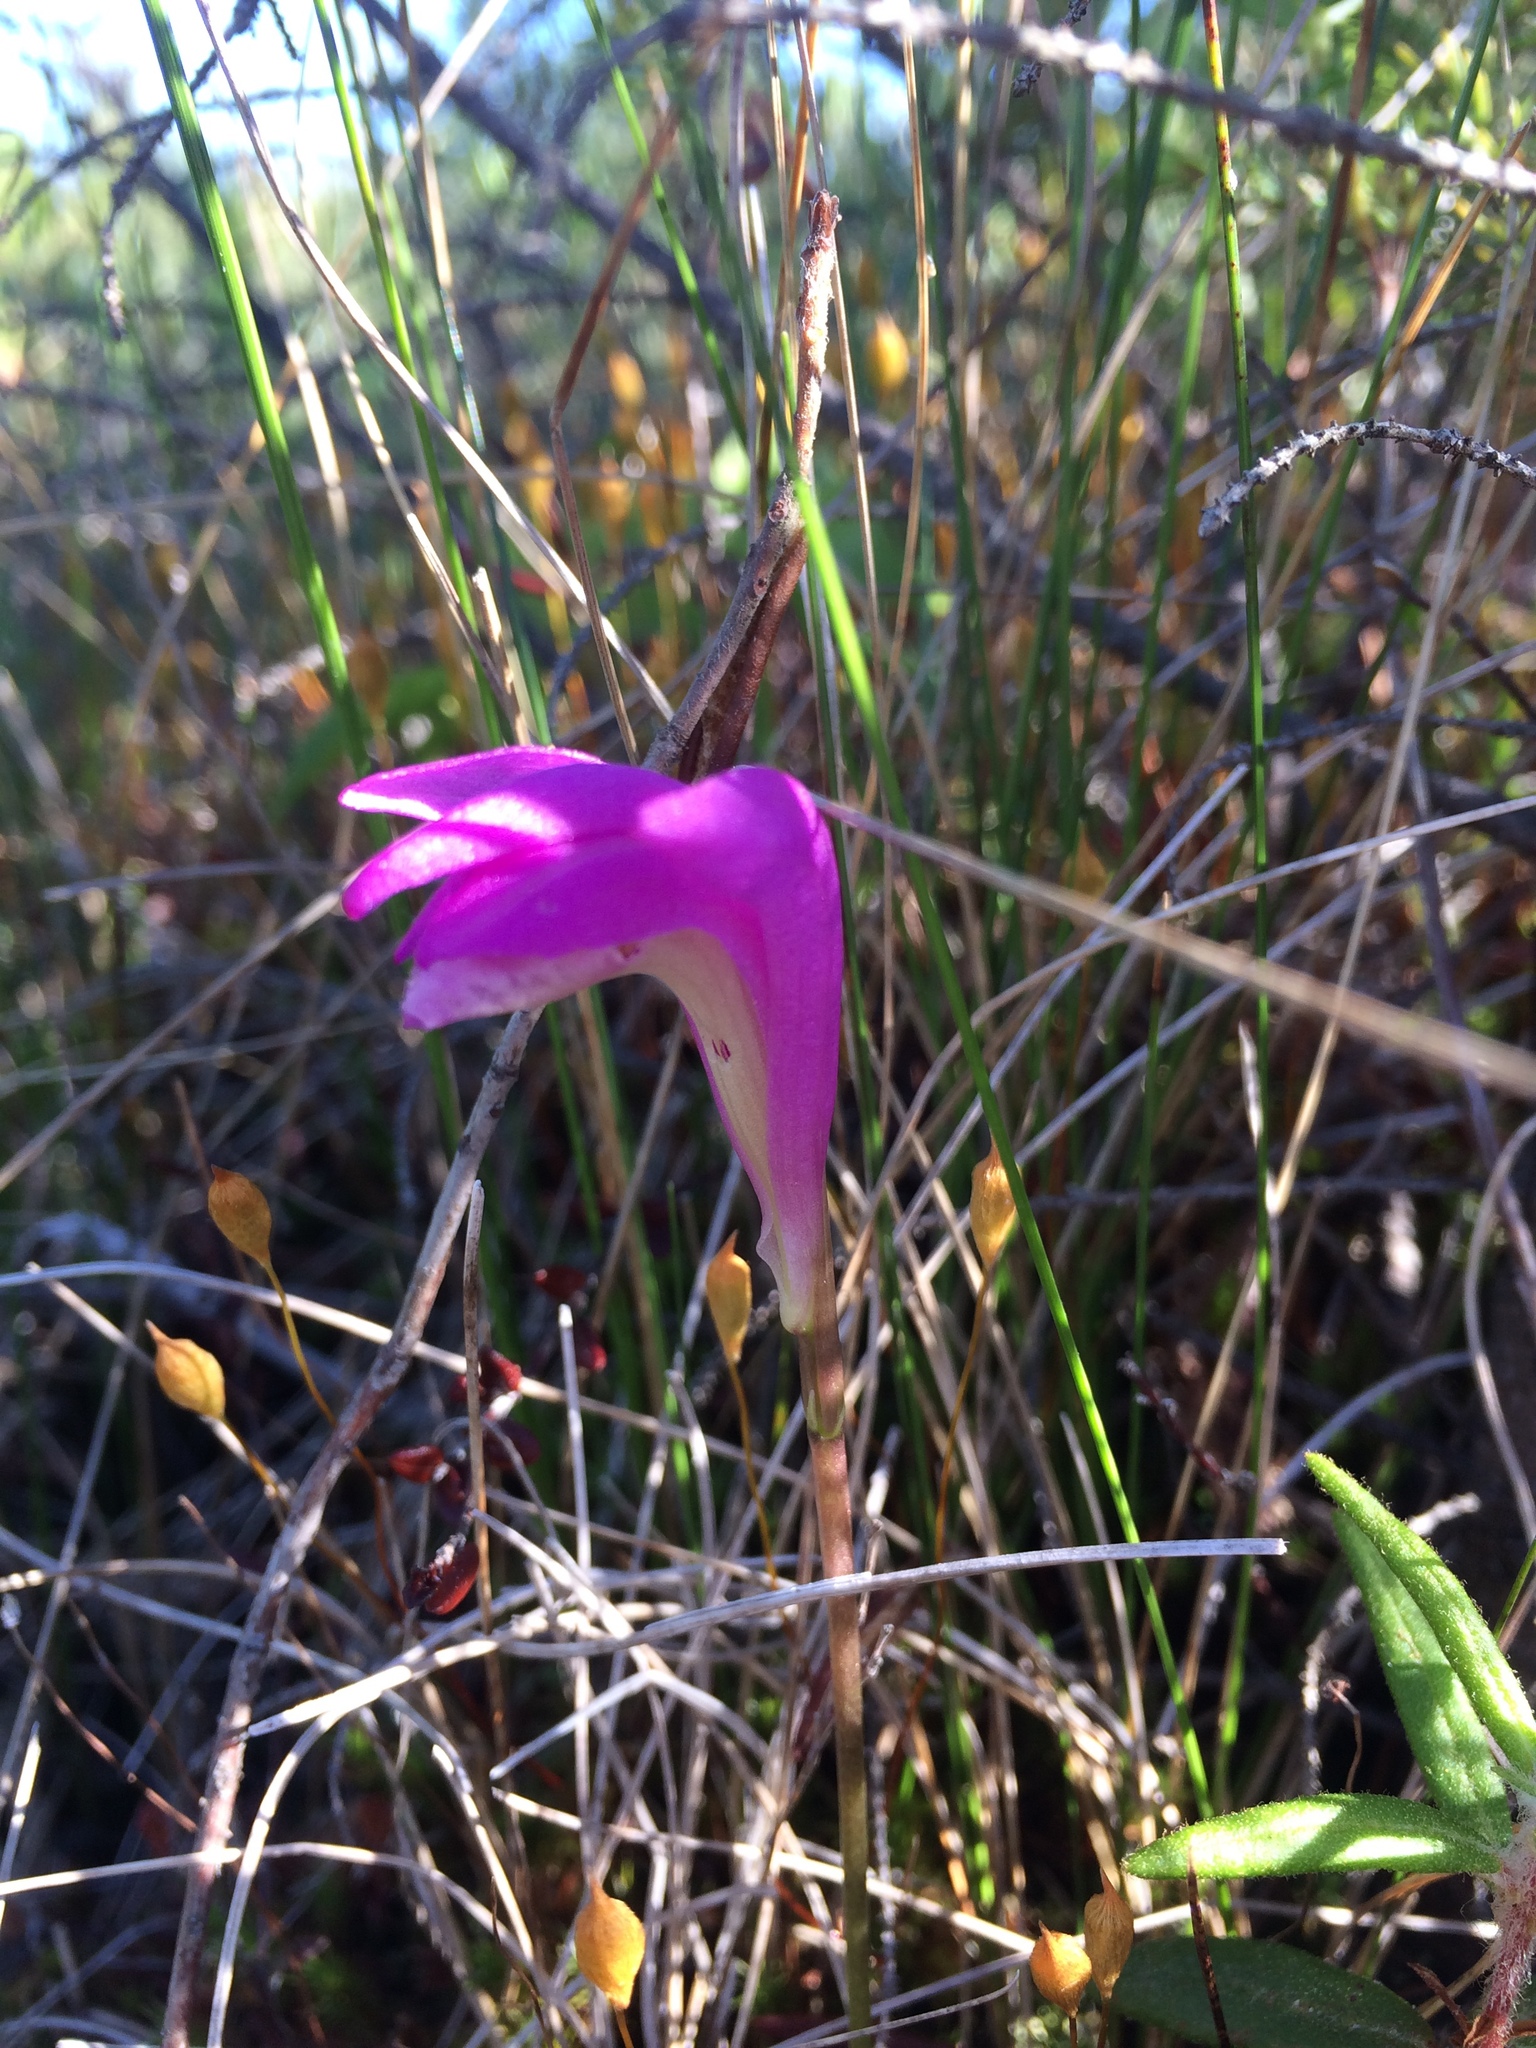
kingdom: Plantae
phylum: Tracheophyta
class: Liliopsida
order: Asparagales
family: Orchidaceae
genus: Arethusa
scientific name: Arethusa bulbosa
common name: Arethusa
